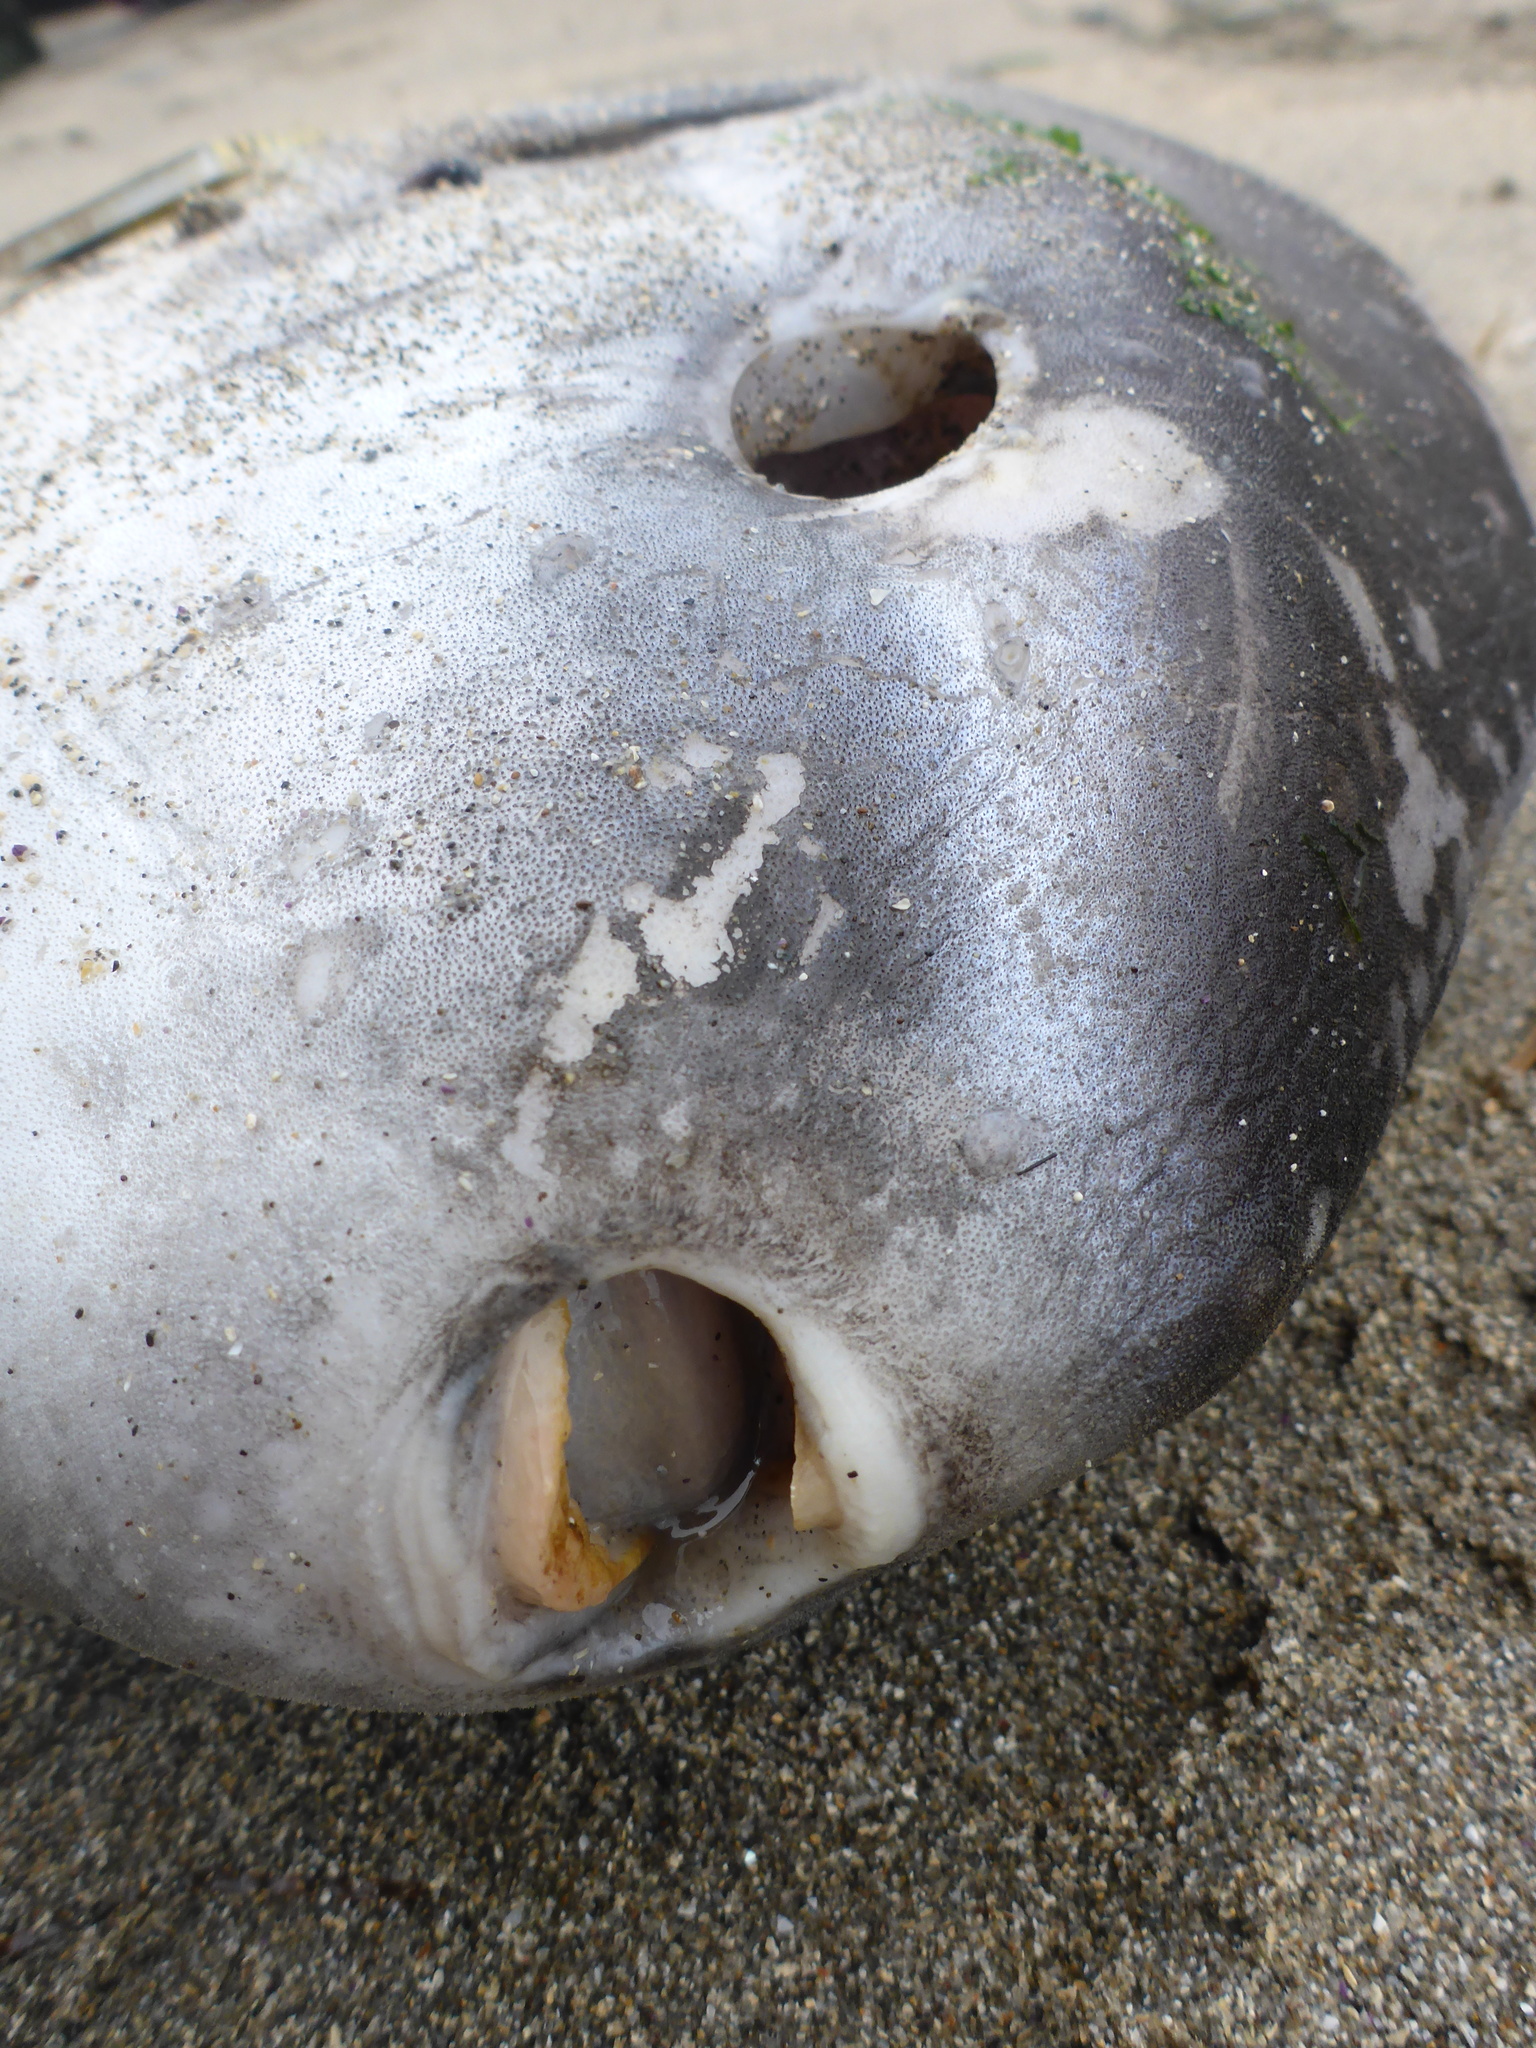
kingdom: Animalia
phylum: Chordata
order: Tetraodontiformes
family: Molidae
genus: Mola
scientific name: Mola mola
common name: Ocean sunfish
